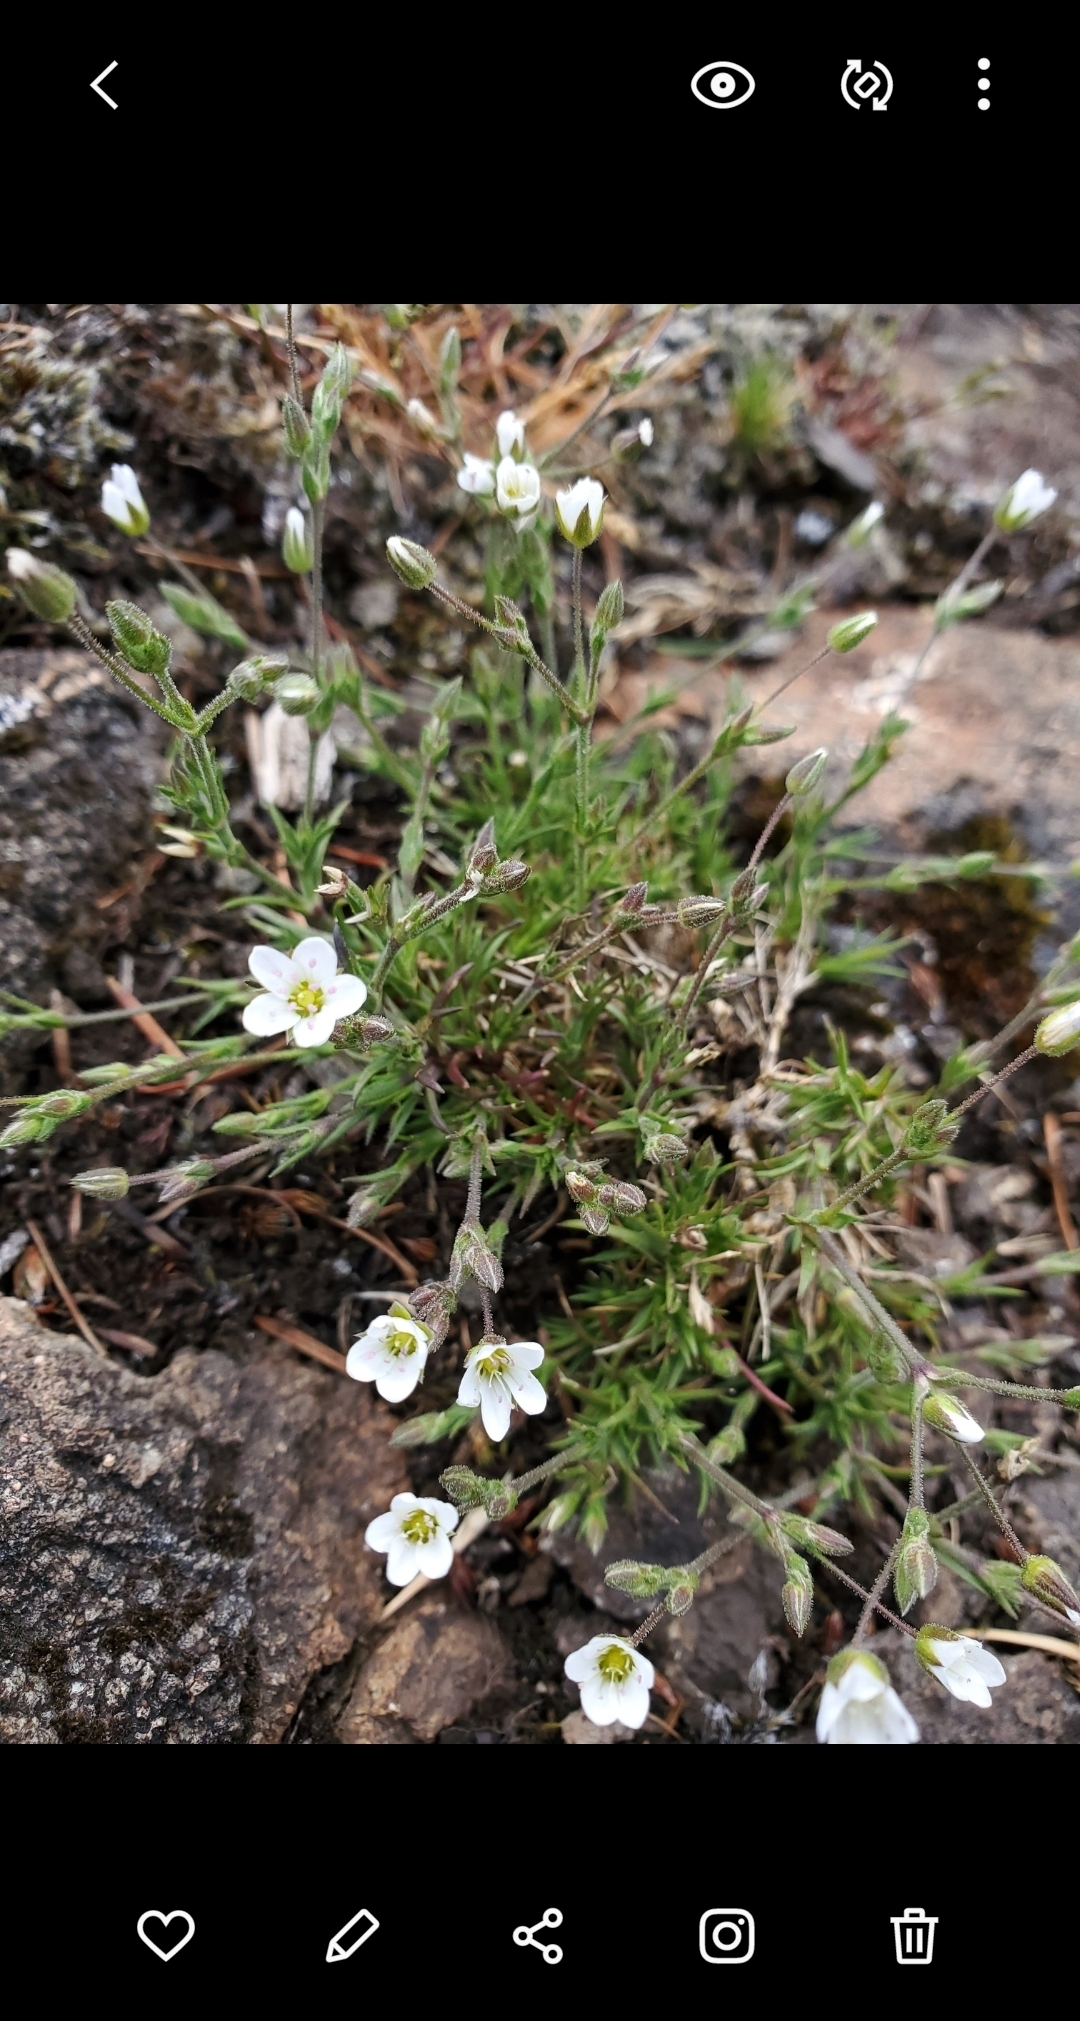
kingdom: Plantae
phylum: Tracheophyta
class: Magnoliopsida
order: Caryophyllales
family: Caryophyllaceae
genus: Sabulina
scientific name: Sabulina rubella
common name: Beautiful sandwort
